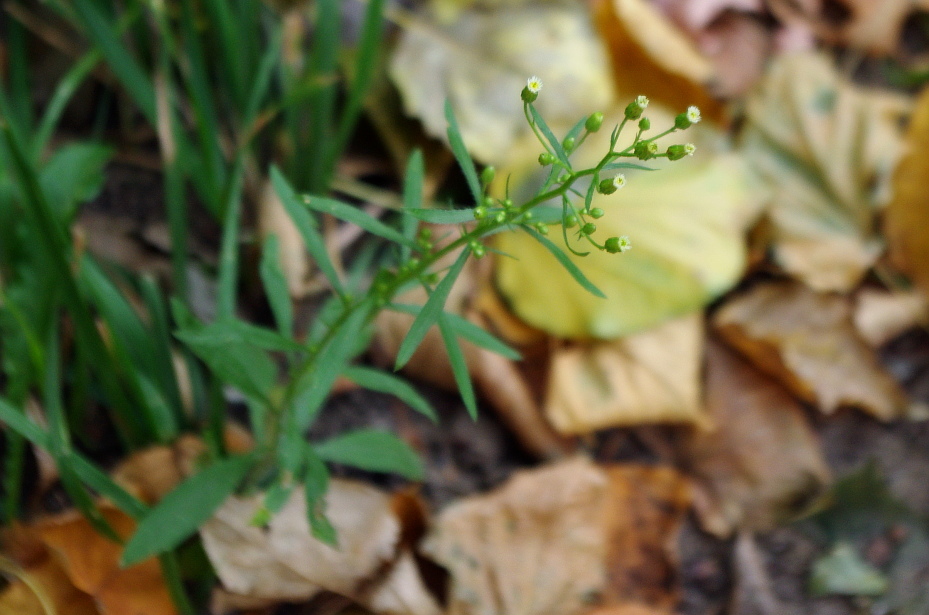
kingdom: Plantae
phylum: Tracheophyta
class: Magnoliopsida
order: Asterales
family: Asteraceae
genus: Erigeron
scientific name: Erigeron canadensis
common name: Canadian fleabane
